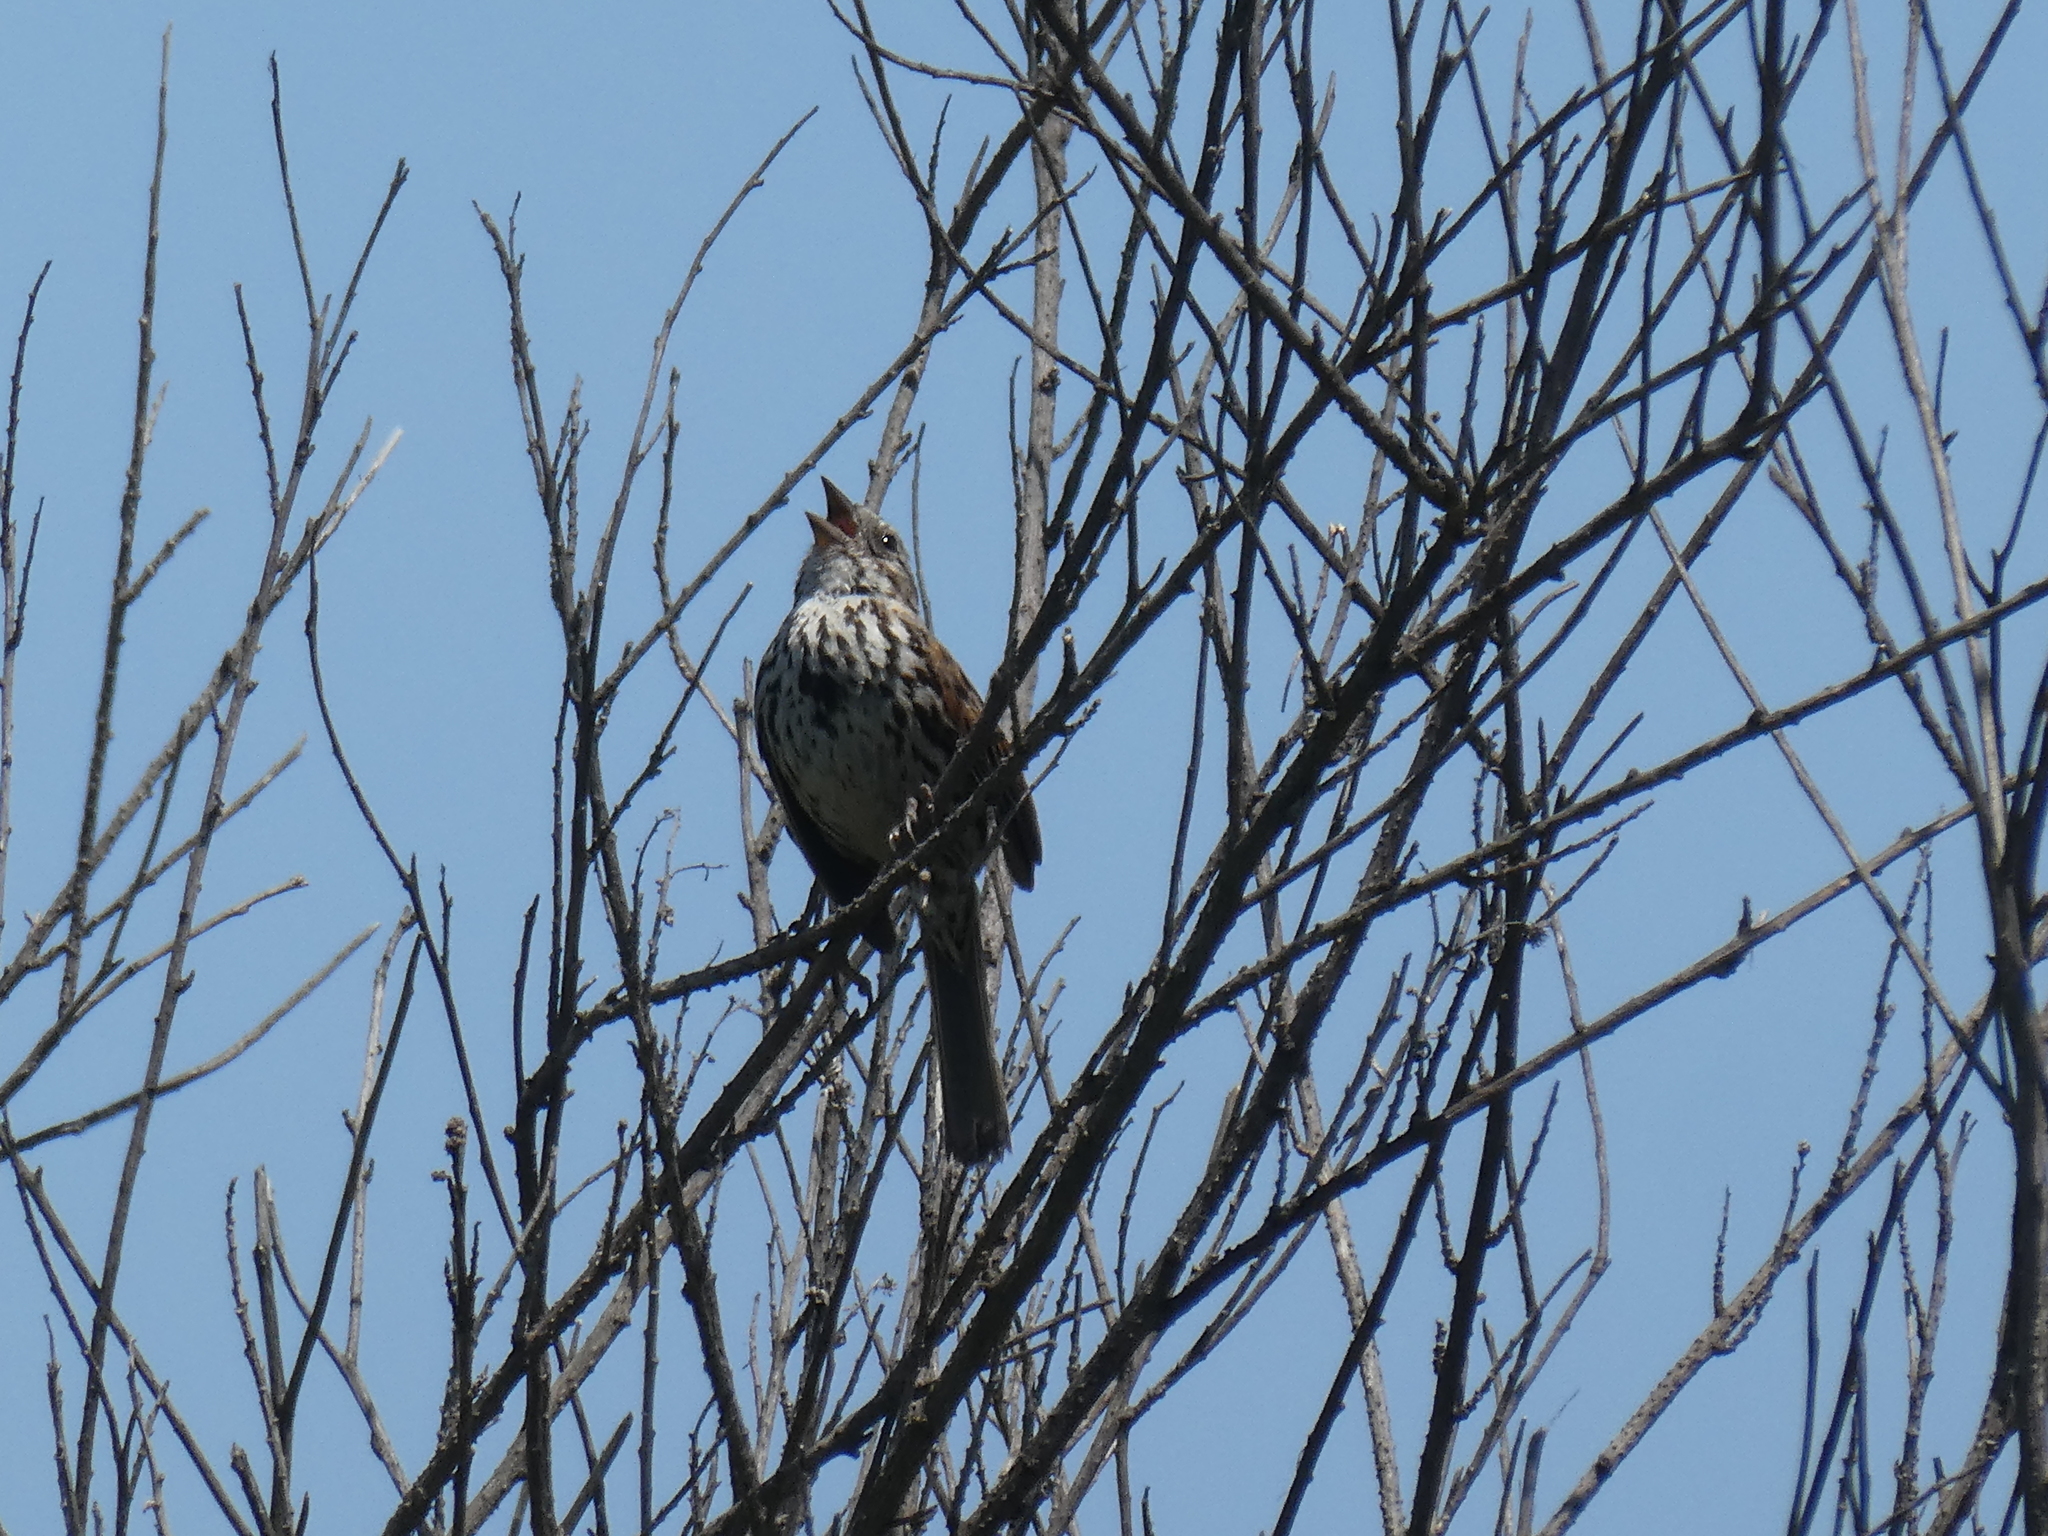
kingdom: Animalia
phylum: Chordata
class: Aves
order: Passeriformes
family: Passerellidae
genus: Melospiza
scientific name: Melospiza melodia
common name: Song sparrow
